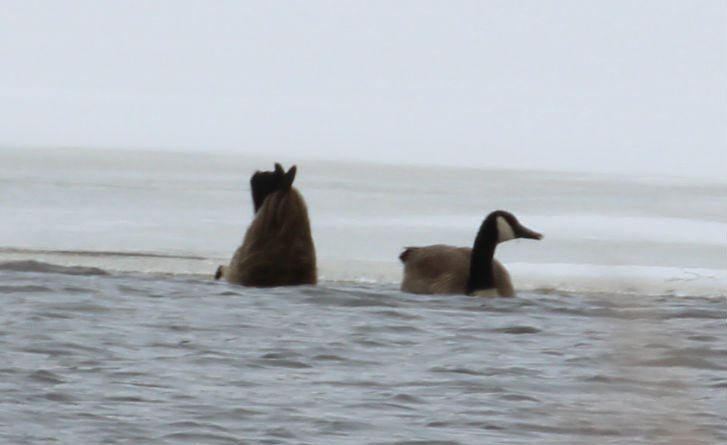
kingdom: Animalia
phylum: Chordata
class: Aves
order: Anseriformes
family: Anatidae
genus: Branta
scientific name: Branta canadensis
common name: Canada goose
